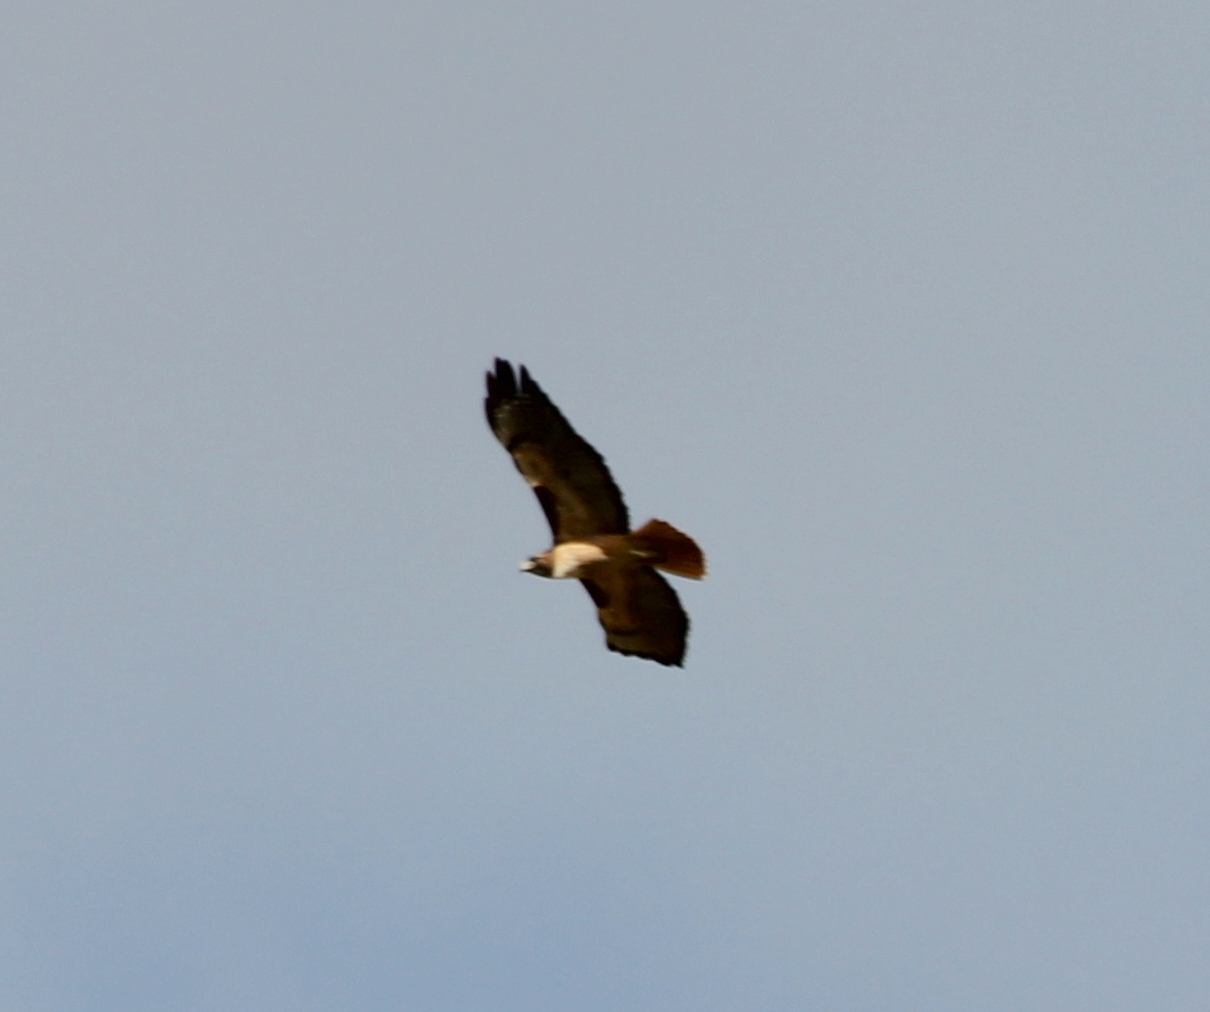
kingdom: Animalia
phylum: Chordata
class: Aves
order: Accipitriformes
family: Accipitridae
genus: Buteo
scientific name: Buteo jamaicensis
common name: Red-tailed hawk
